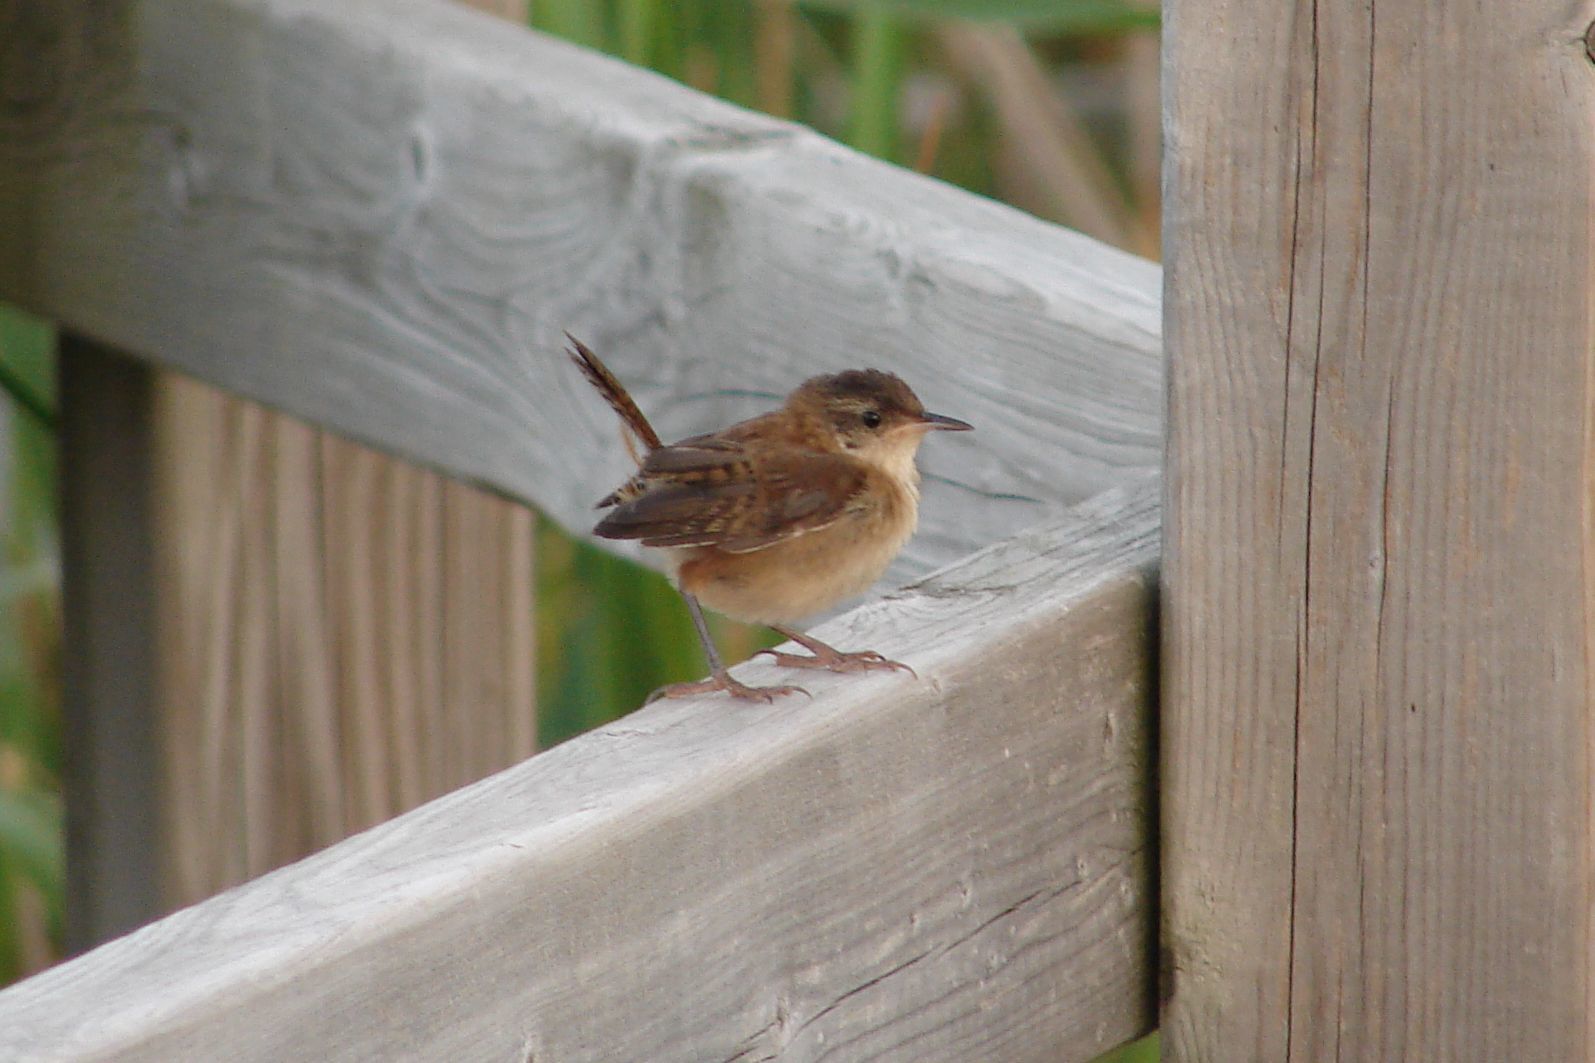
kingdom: Animalia
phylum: Chordata
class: Aves
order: Passeriformes
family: Troglodytidae
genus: Cistothorus
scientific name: Cistothorus palustris
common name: Marsh wren
